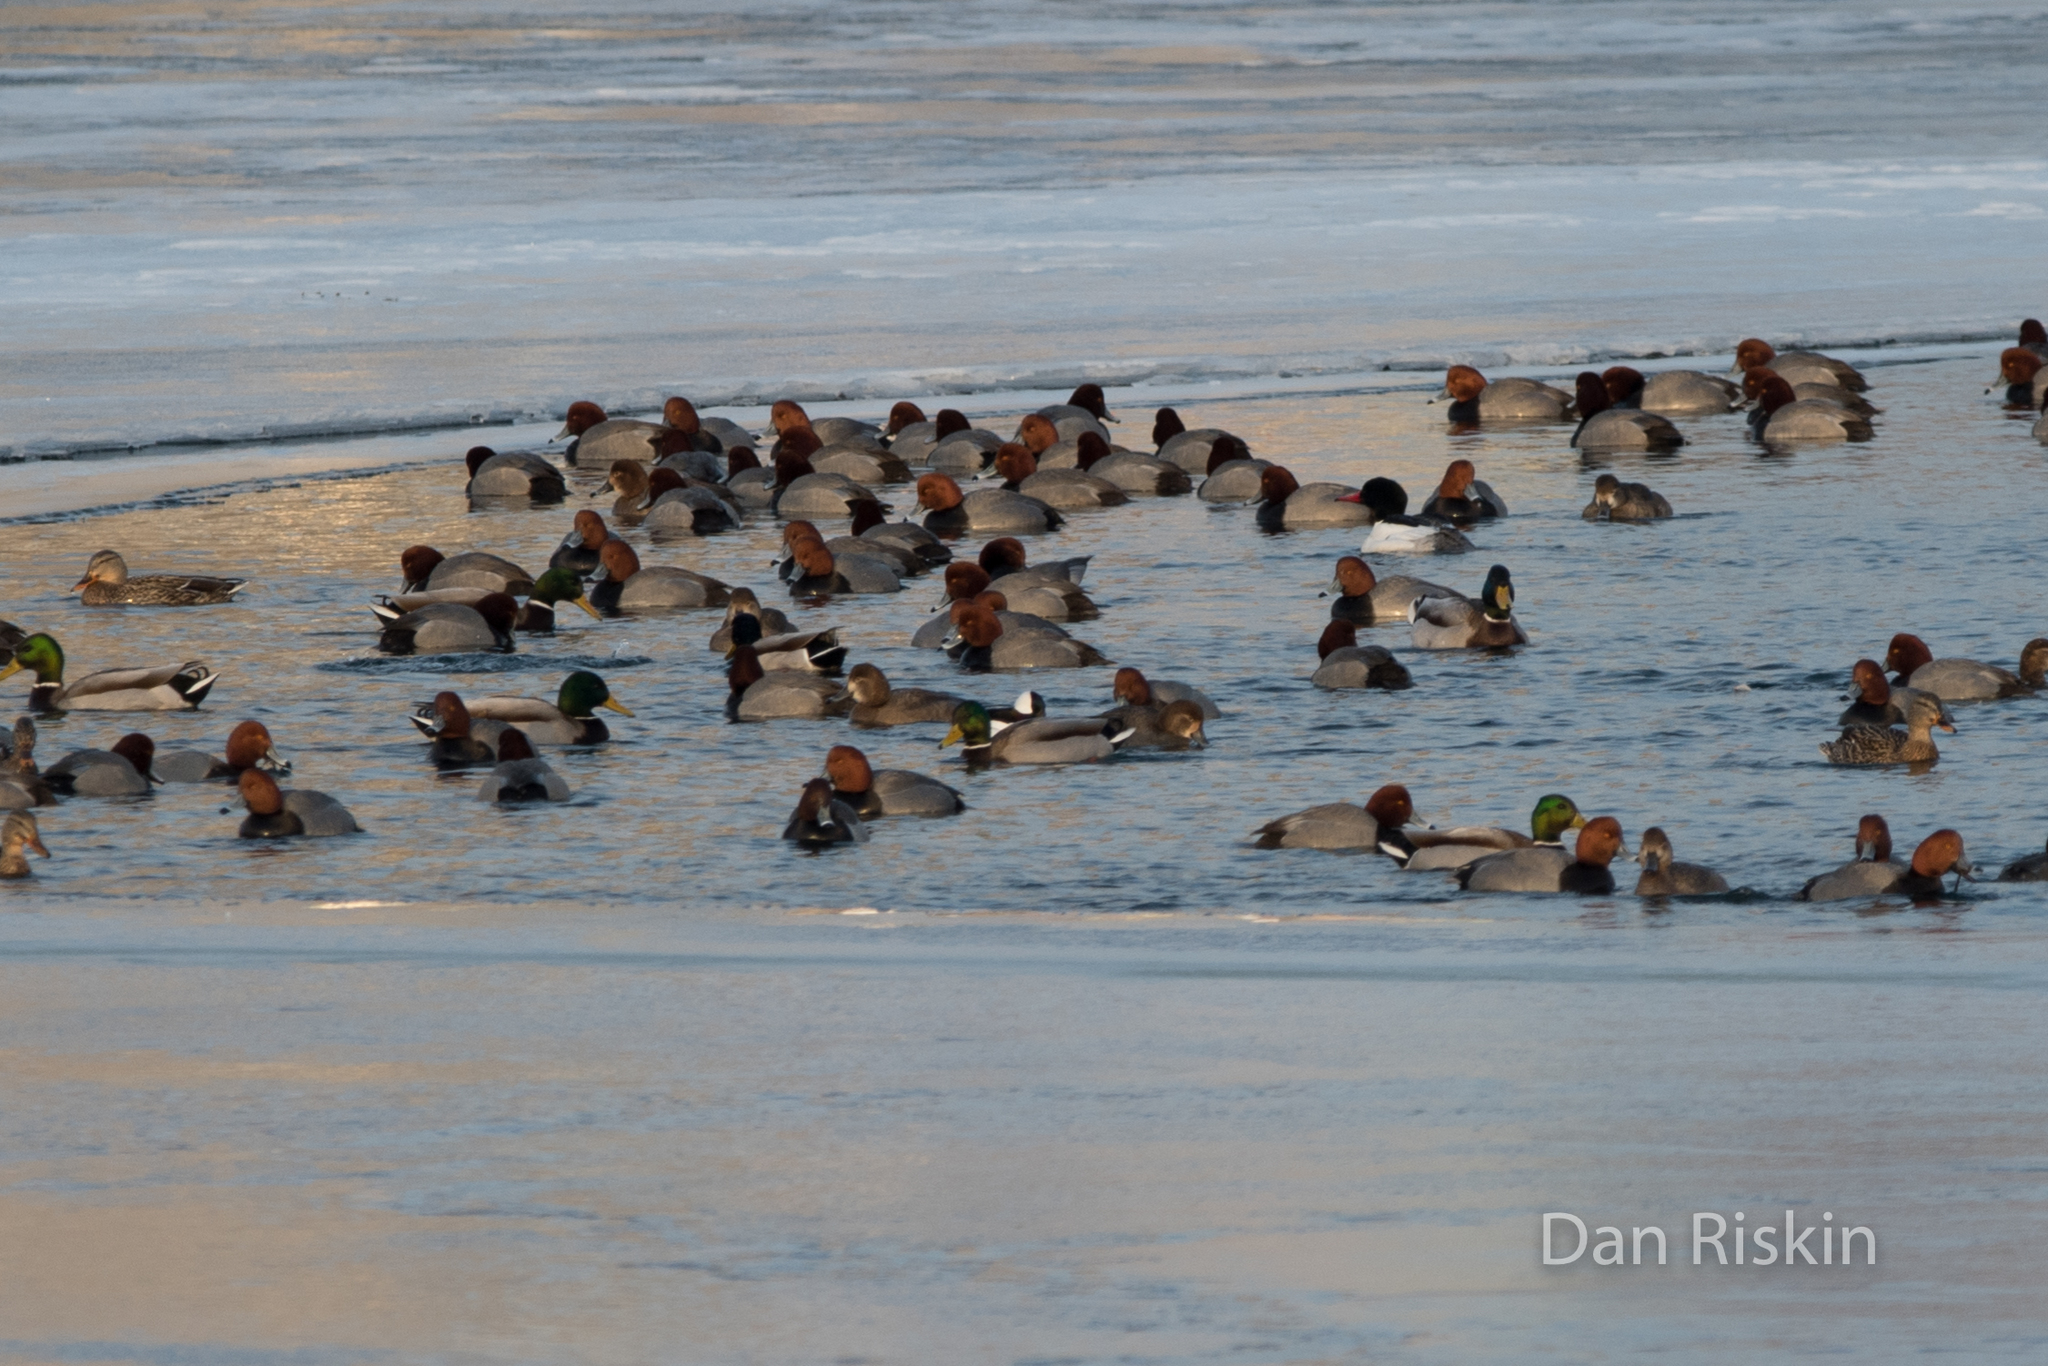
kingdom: Animalia
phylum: Chordata
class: Aves
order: Anseriformes
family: Anatidae
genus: Aythya
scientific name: Aythya americana
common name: Redhead
